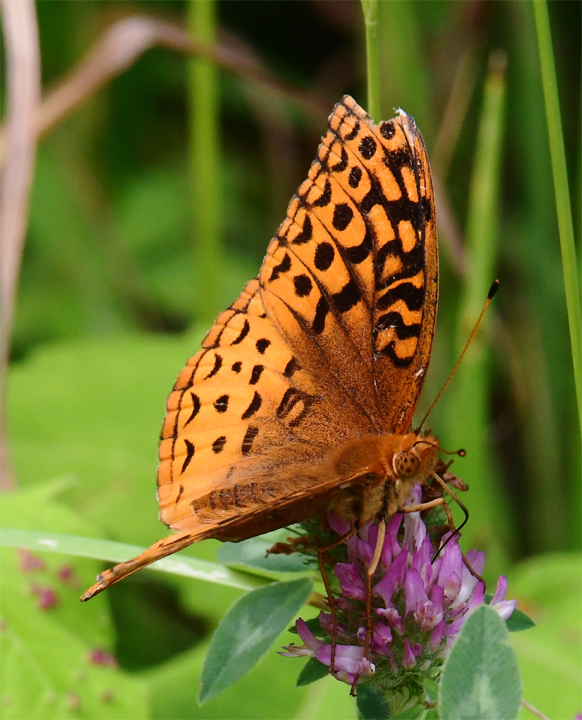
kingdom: Animalia
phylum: Arthropoda
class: Insecta
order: Lepidoptera
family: Nymphalidae
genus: Speyeria
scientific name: Speyeria cybele
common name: Great spangled fritillary
